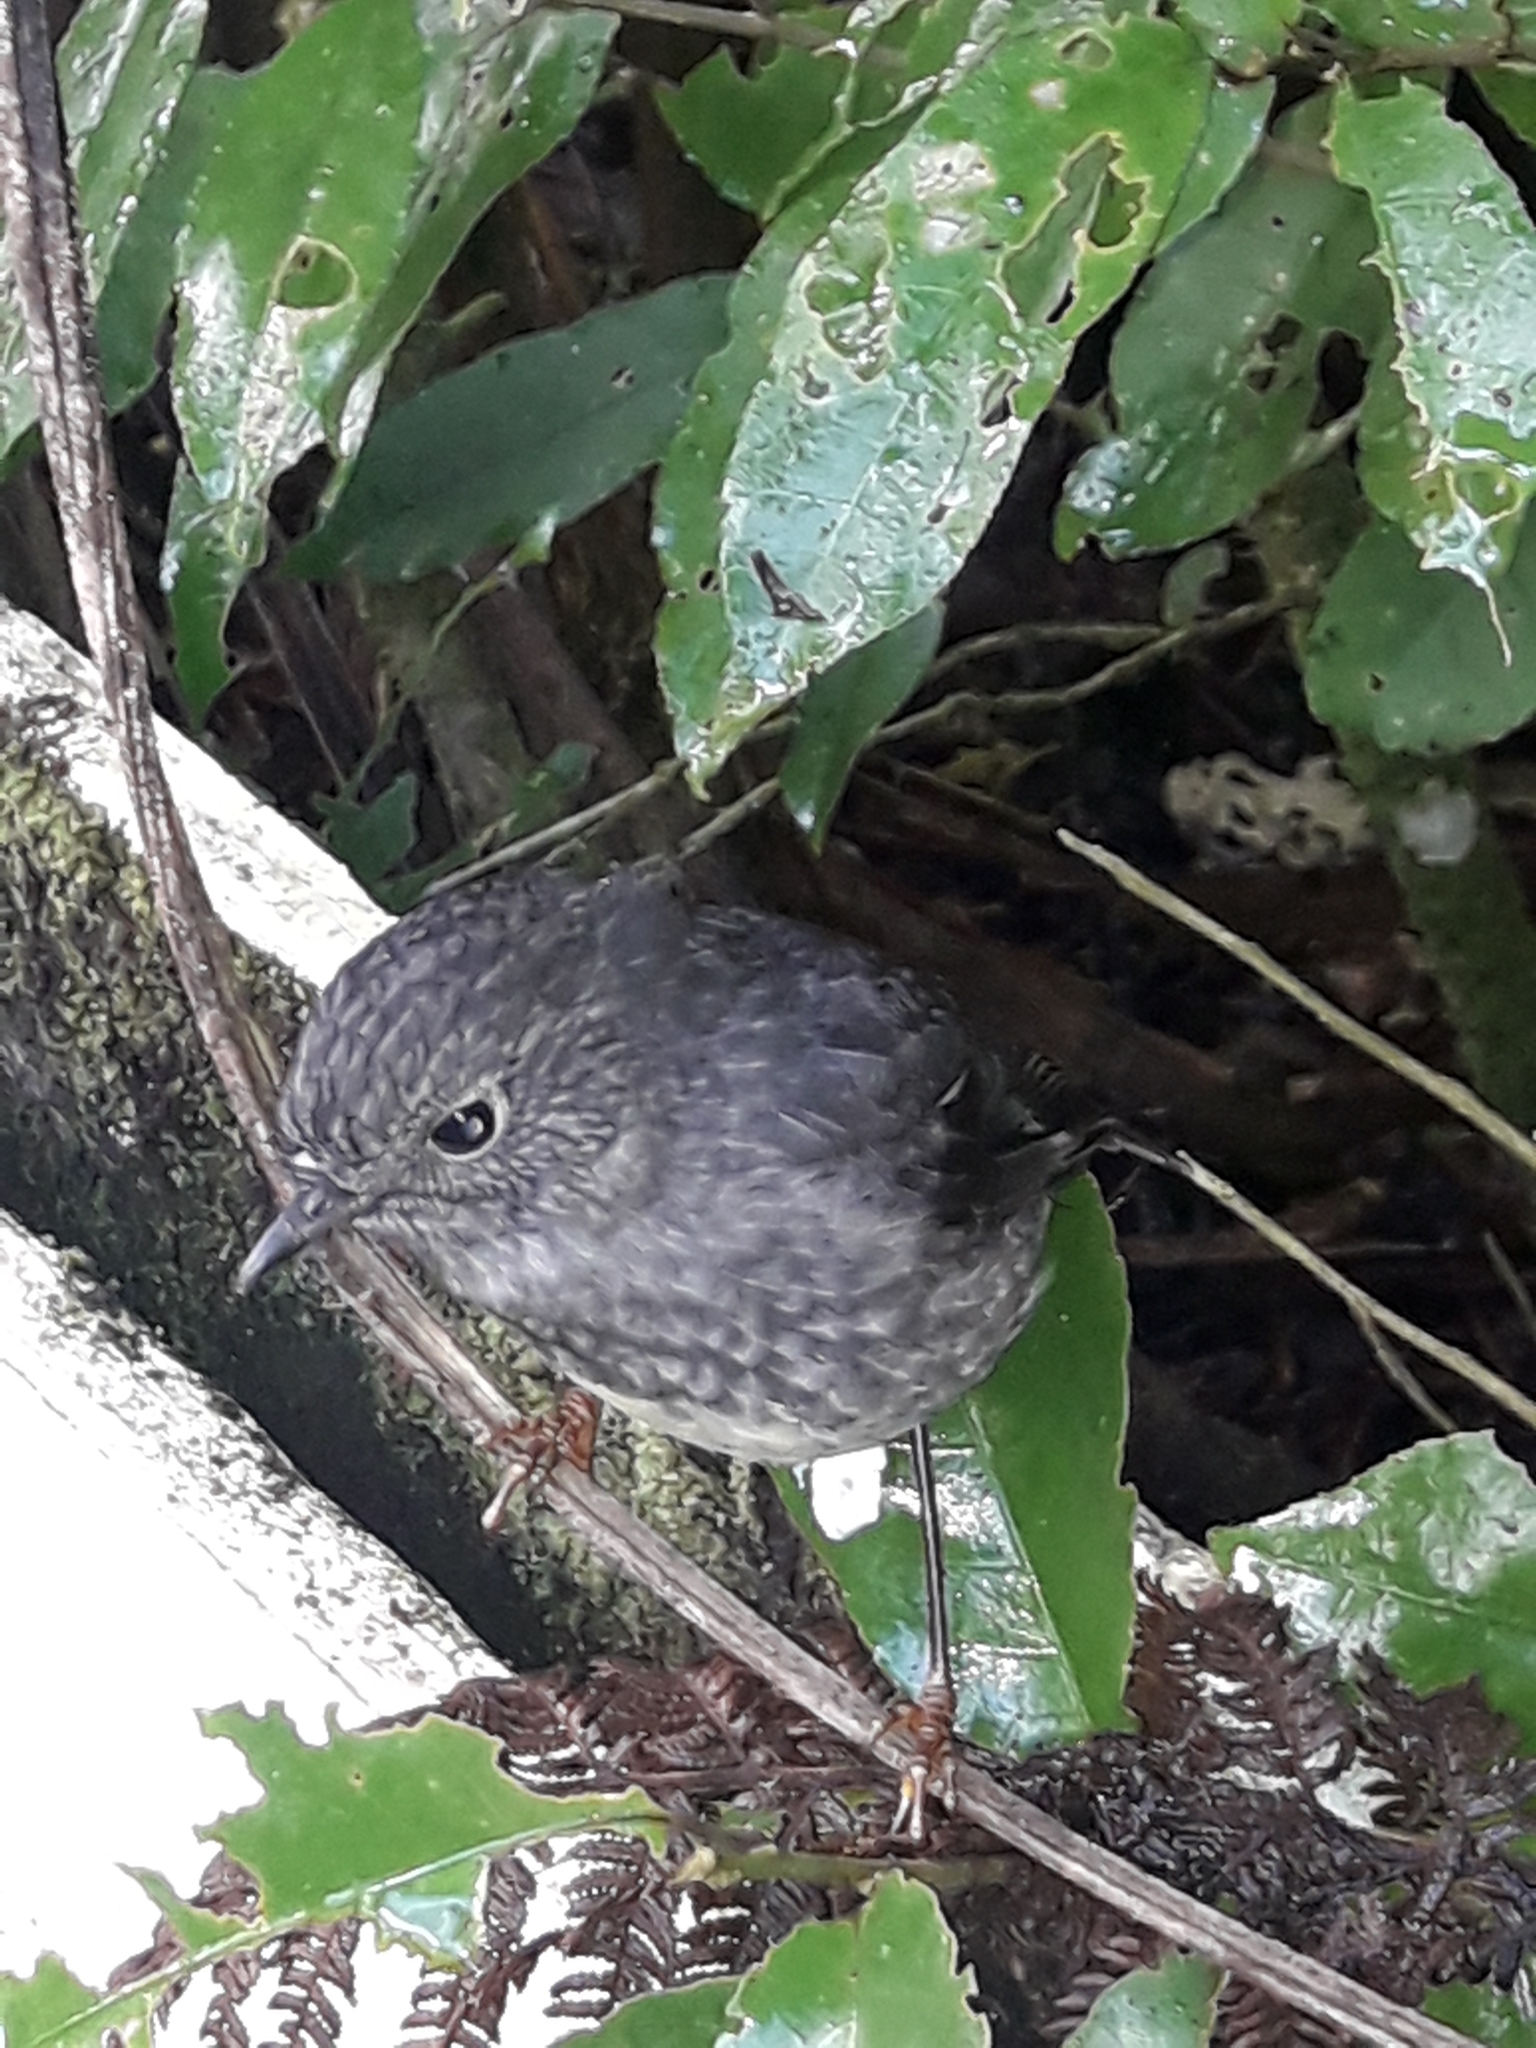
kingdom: Animalia
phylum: Chordata
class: Aves
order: Passeriformes
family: Petroicidae
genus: Petroica
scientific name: Petroica australis
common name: New zealand robin
